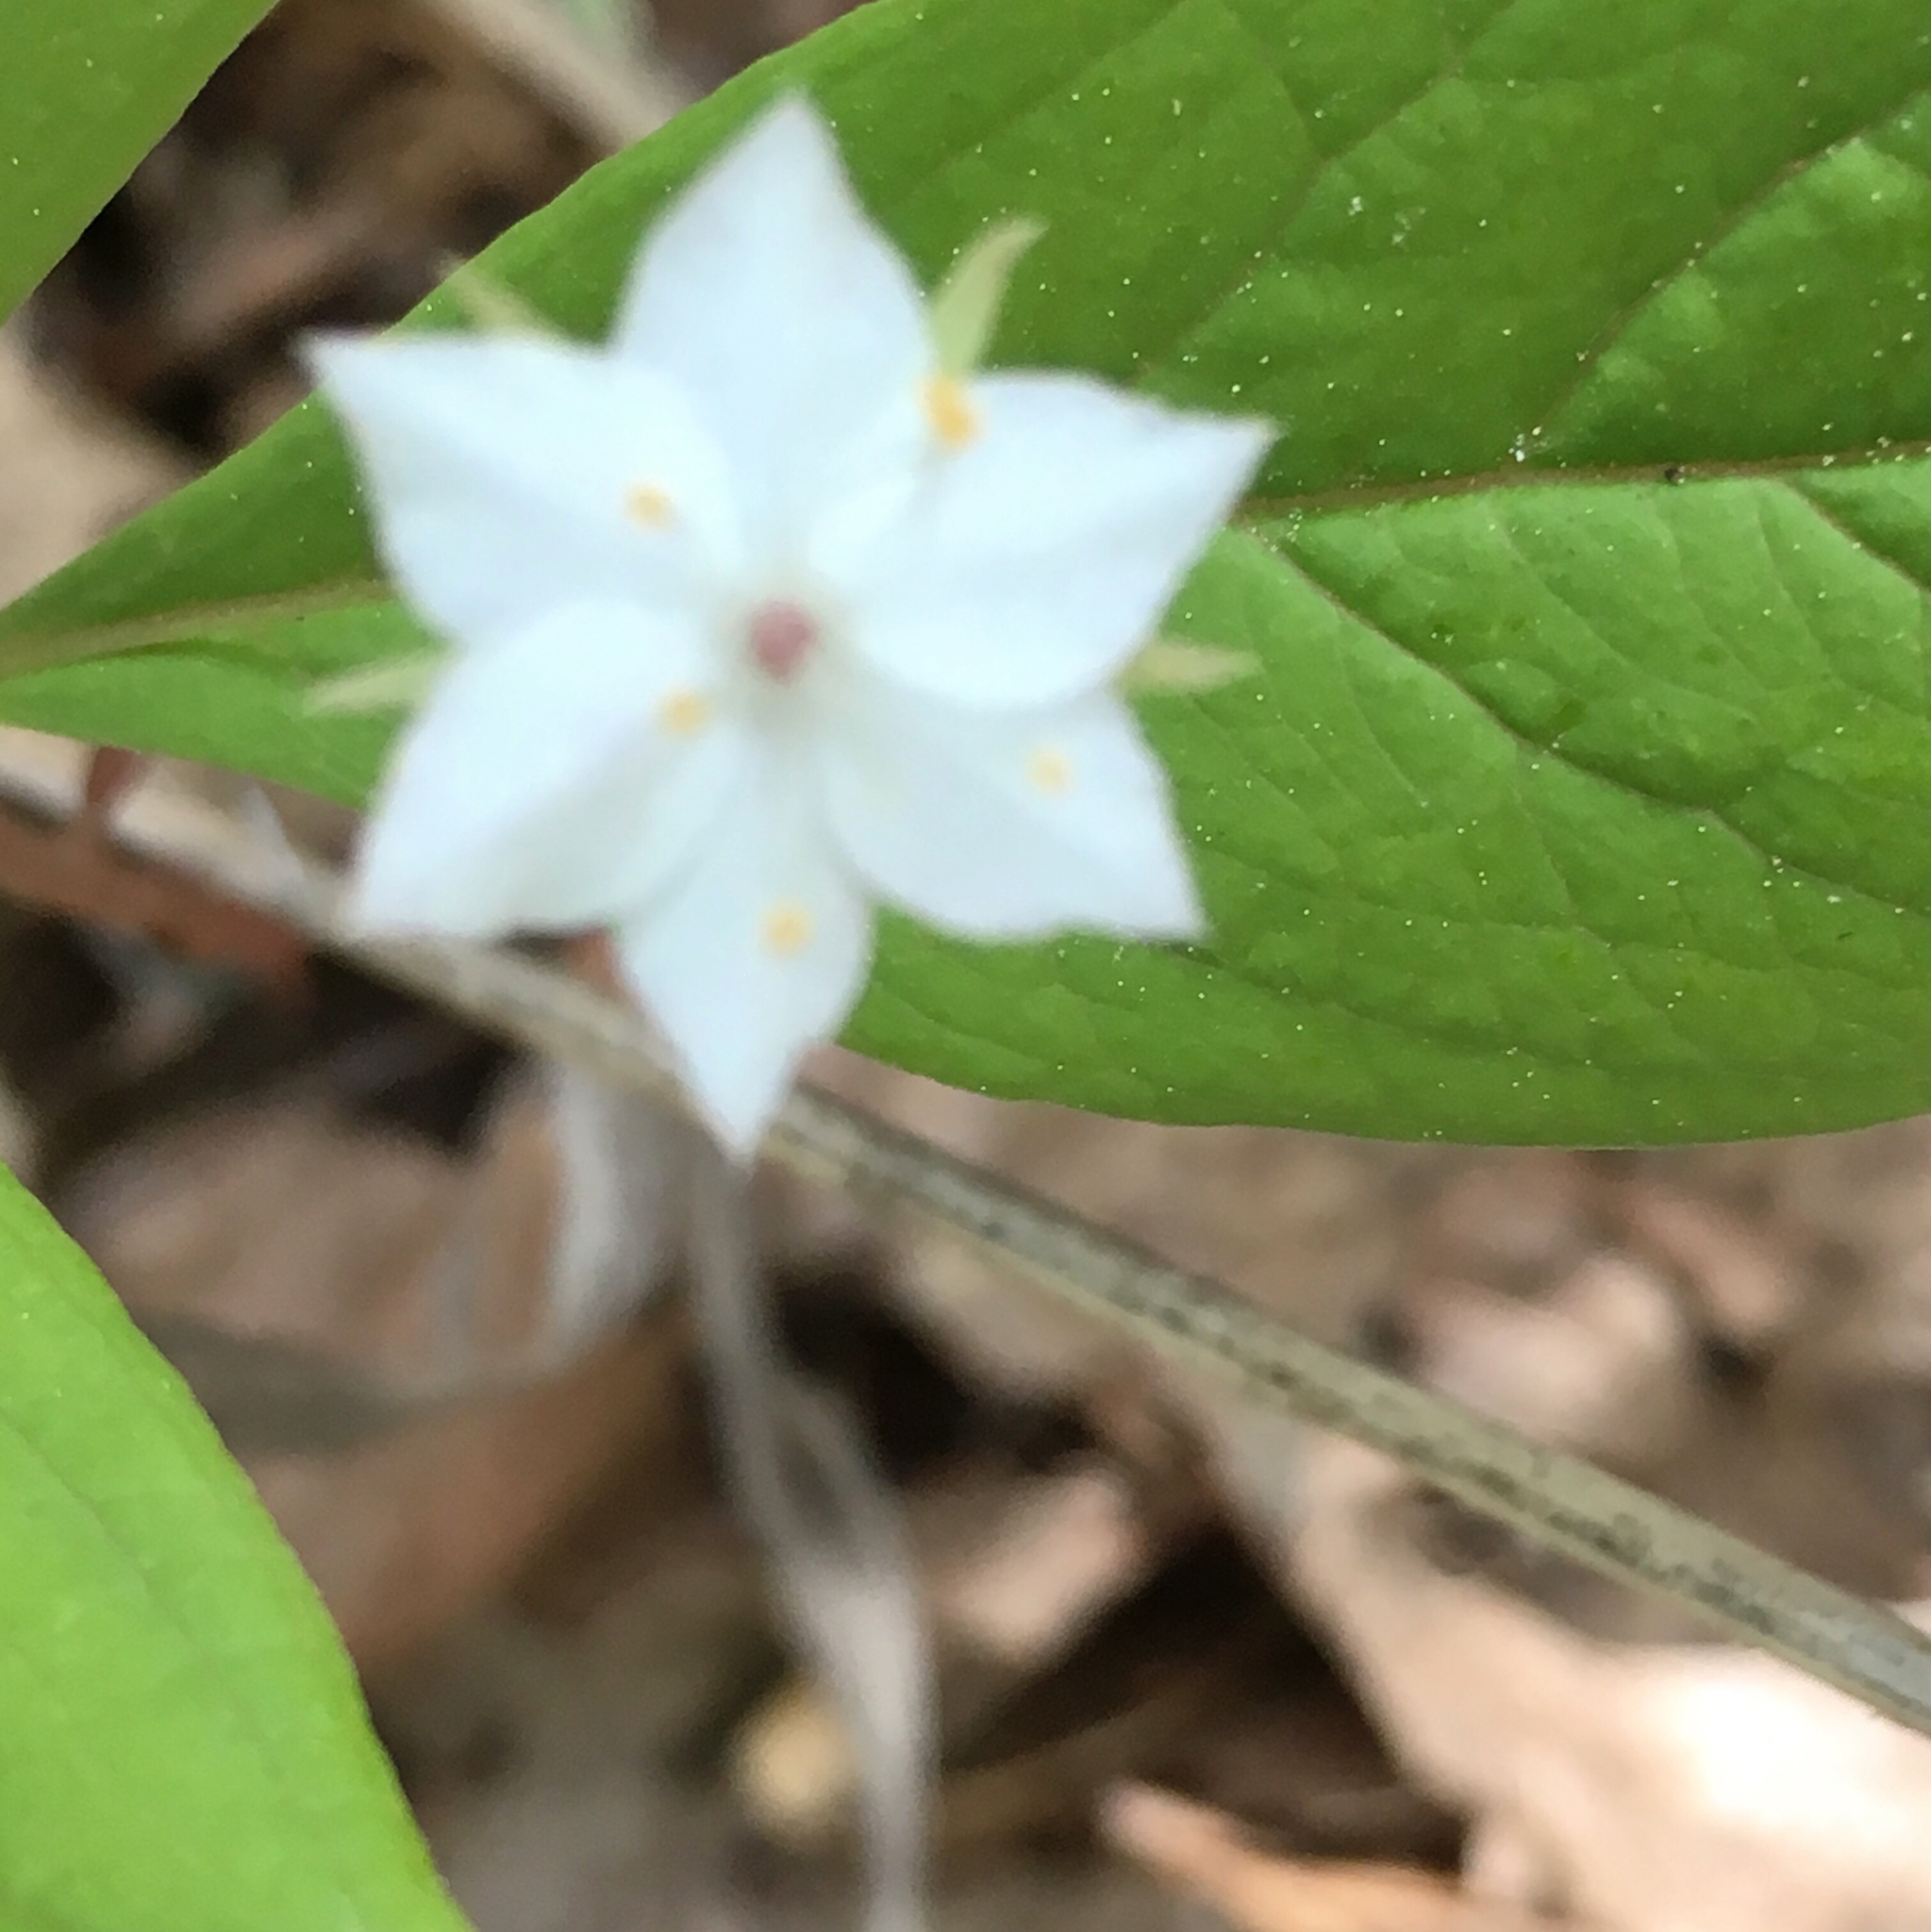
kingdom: Plantae
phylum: Tracheophyta
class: Magnoliopsida
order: Ericales
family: Primulaceae
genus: Lysimachia
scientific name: Lysimachia latifolia
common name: Pacific starflower
